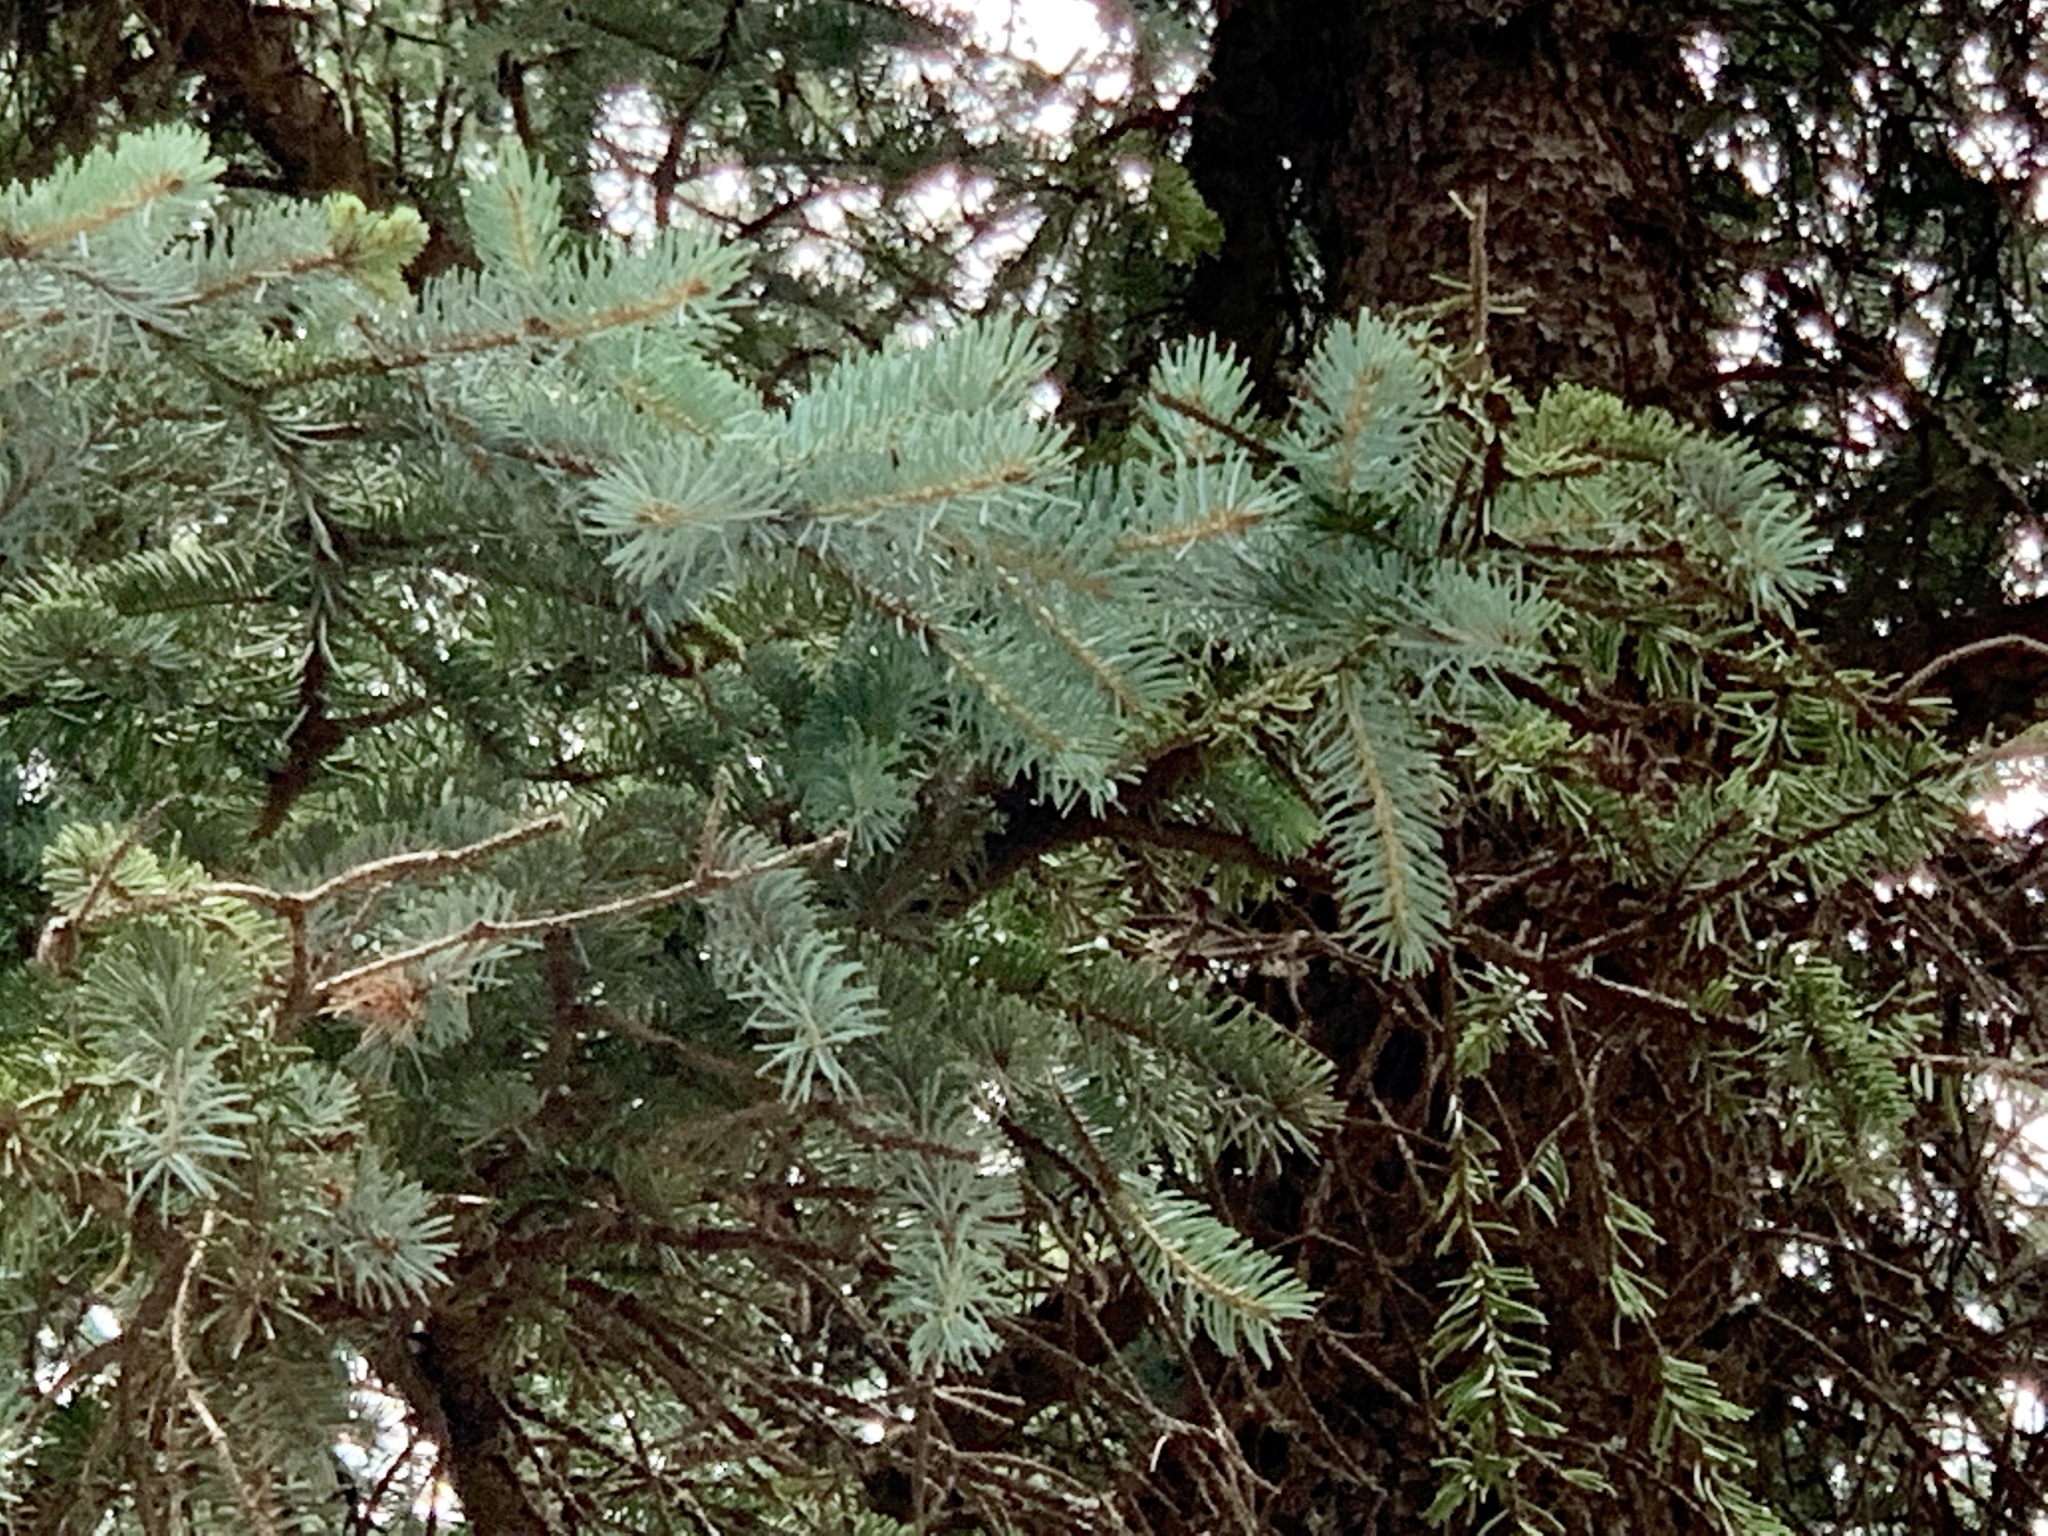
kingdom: Plantae
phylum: Tracheophyta
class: Pinopsida
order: Pinales
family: Pinaceae
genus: Picea
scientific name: Picea engelmannii
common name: Engelmann spruce
